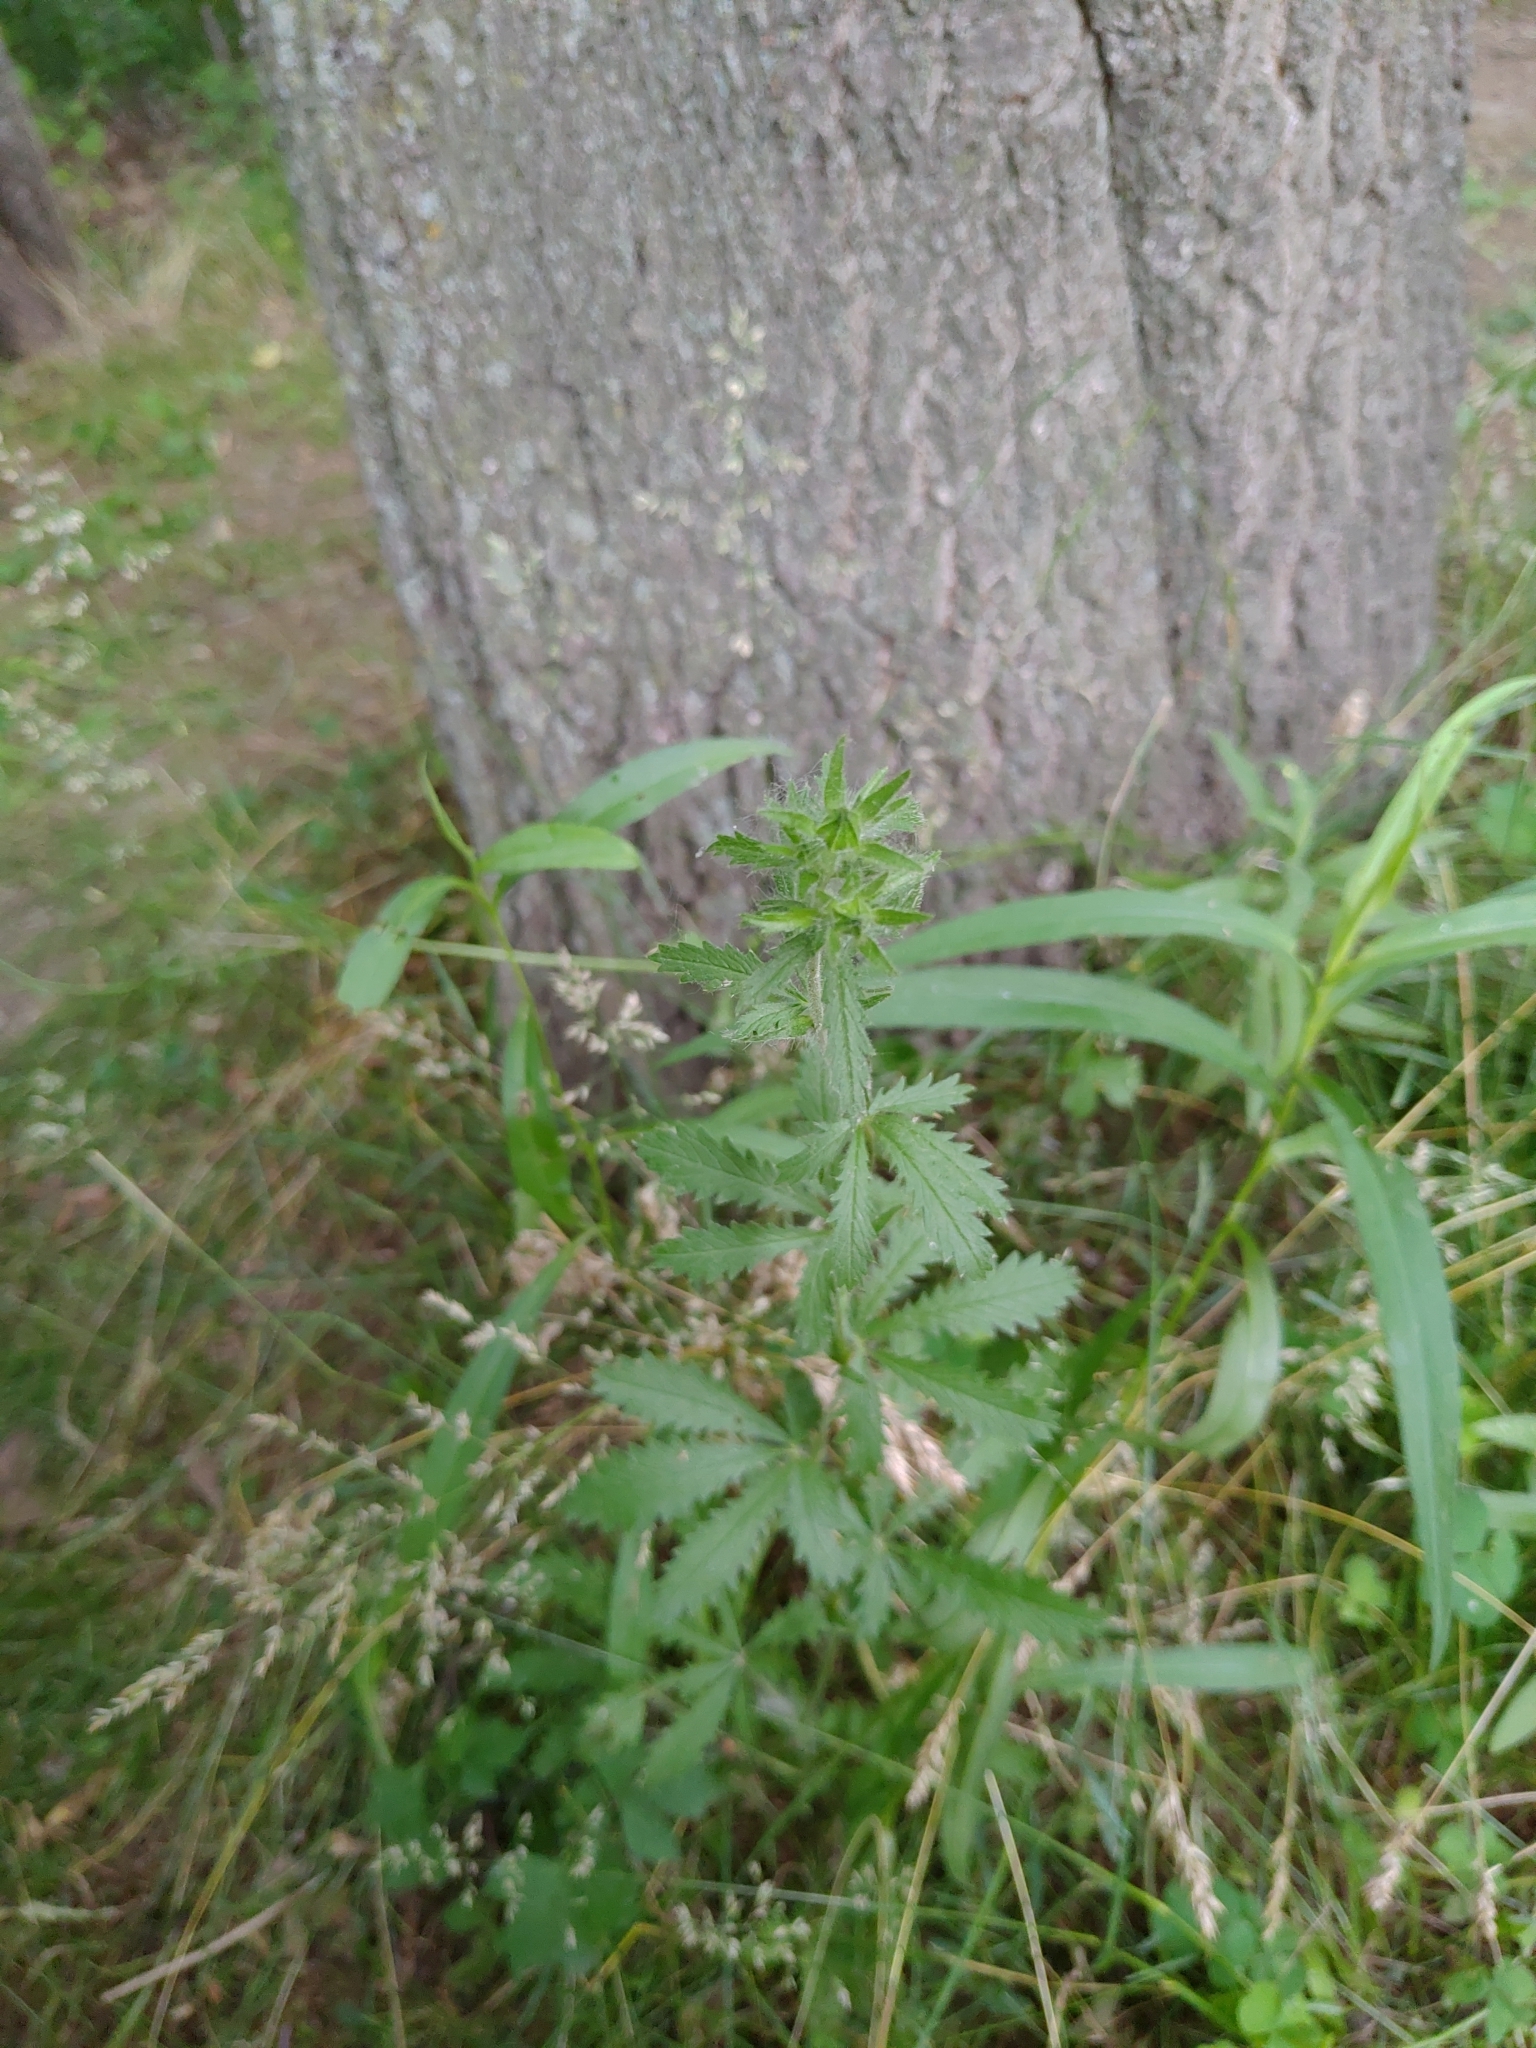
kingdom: Plantae
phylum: Tracheophyta
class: Magnoliopsida
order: Rosales
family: Rosaceae
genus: Potentilla
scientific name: Potentilla recta
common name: Sulphur cinquefoil
